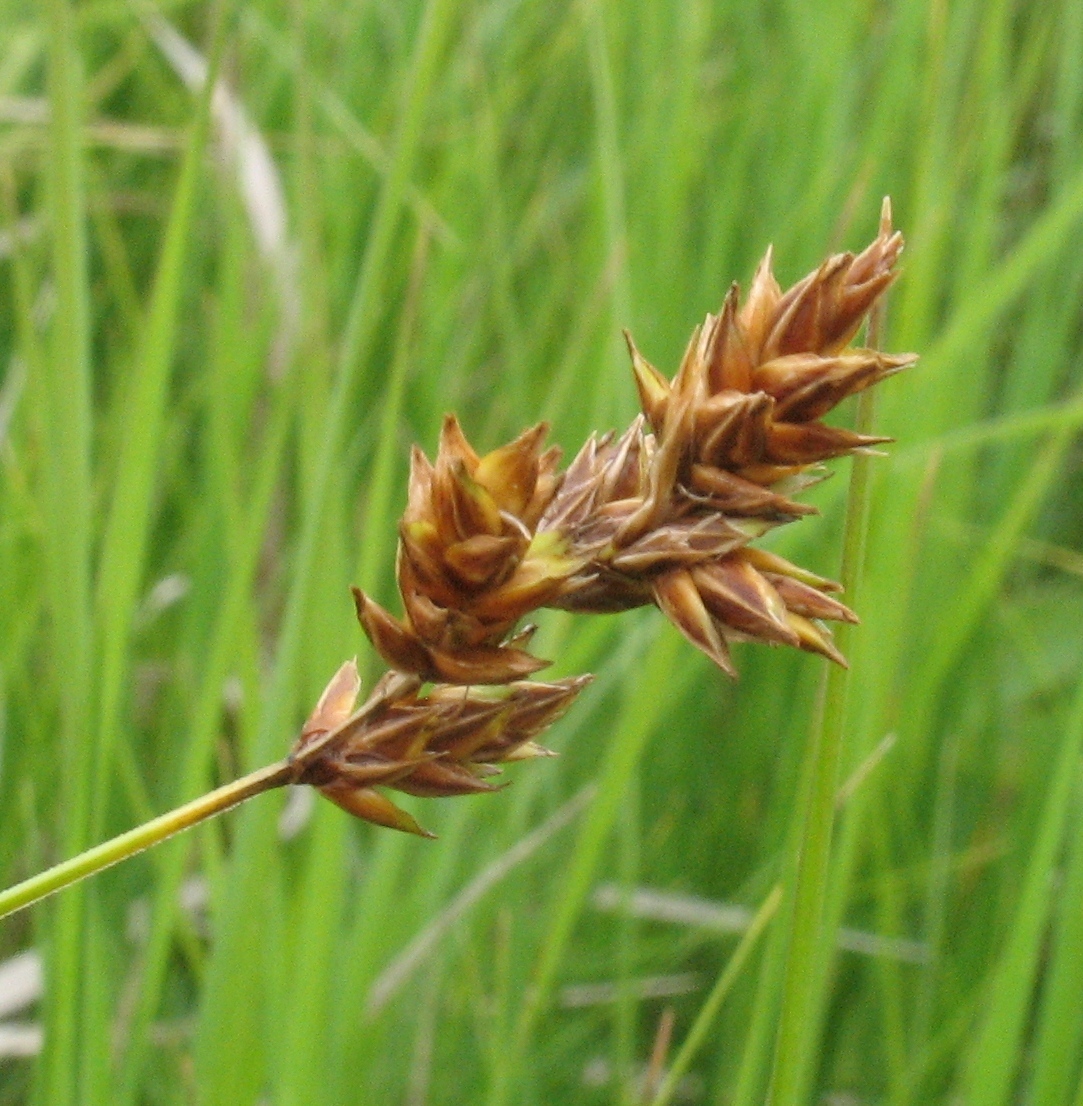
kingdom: Plantae
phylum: Tracheophyta
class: Liliopsida
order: Poales
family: Cyperaceae
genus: Carex
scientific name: Carex praecox
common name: Early sedge
